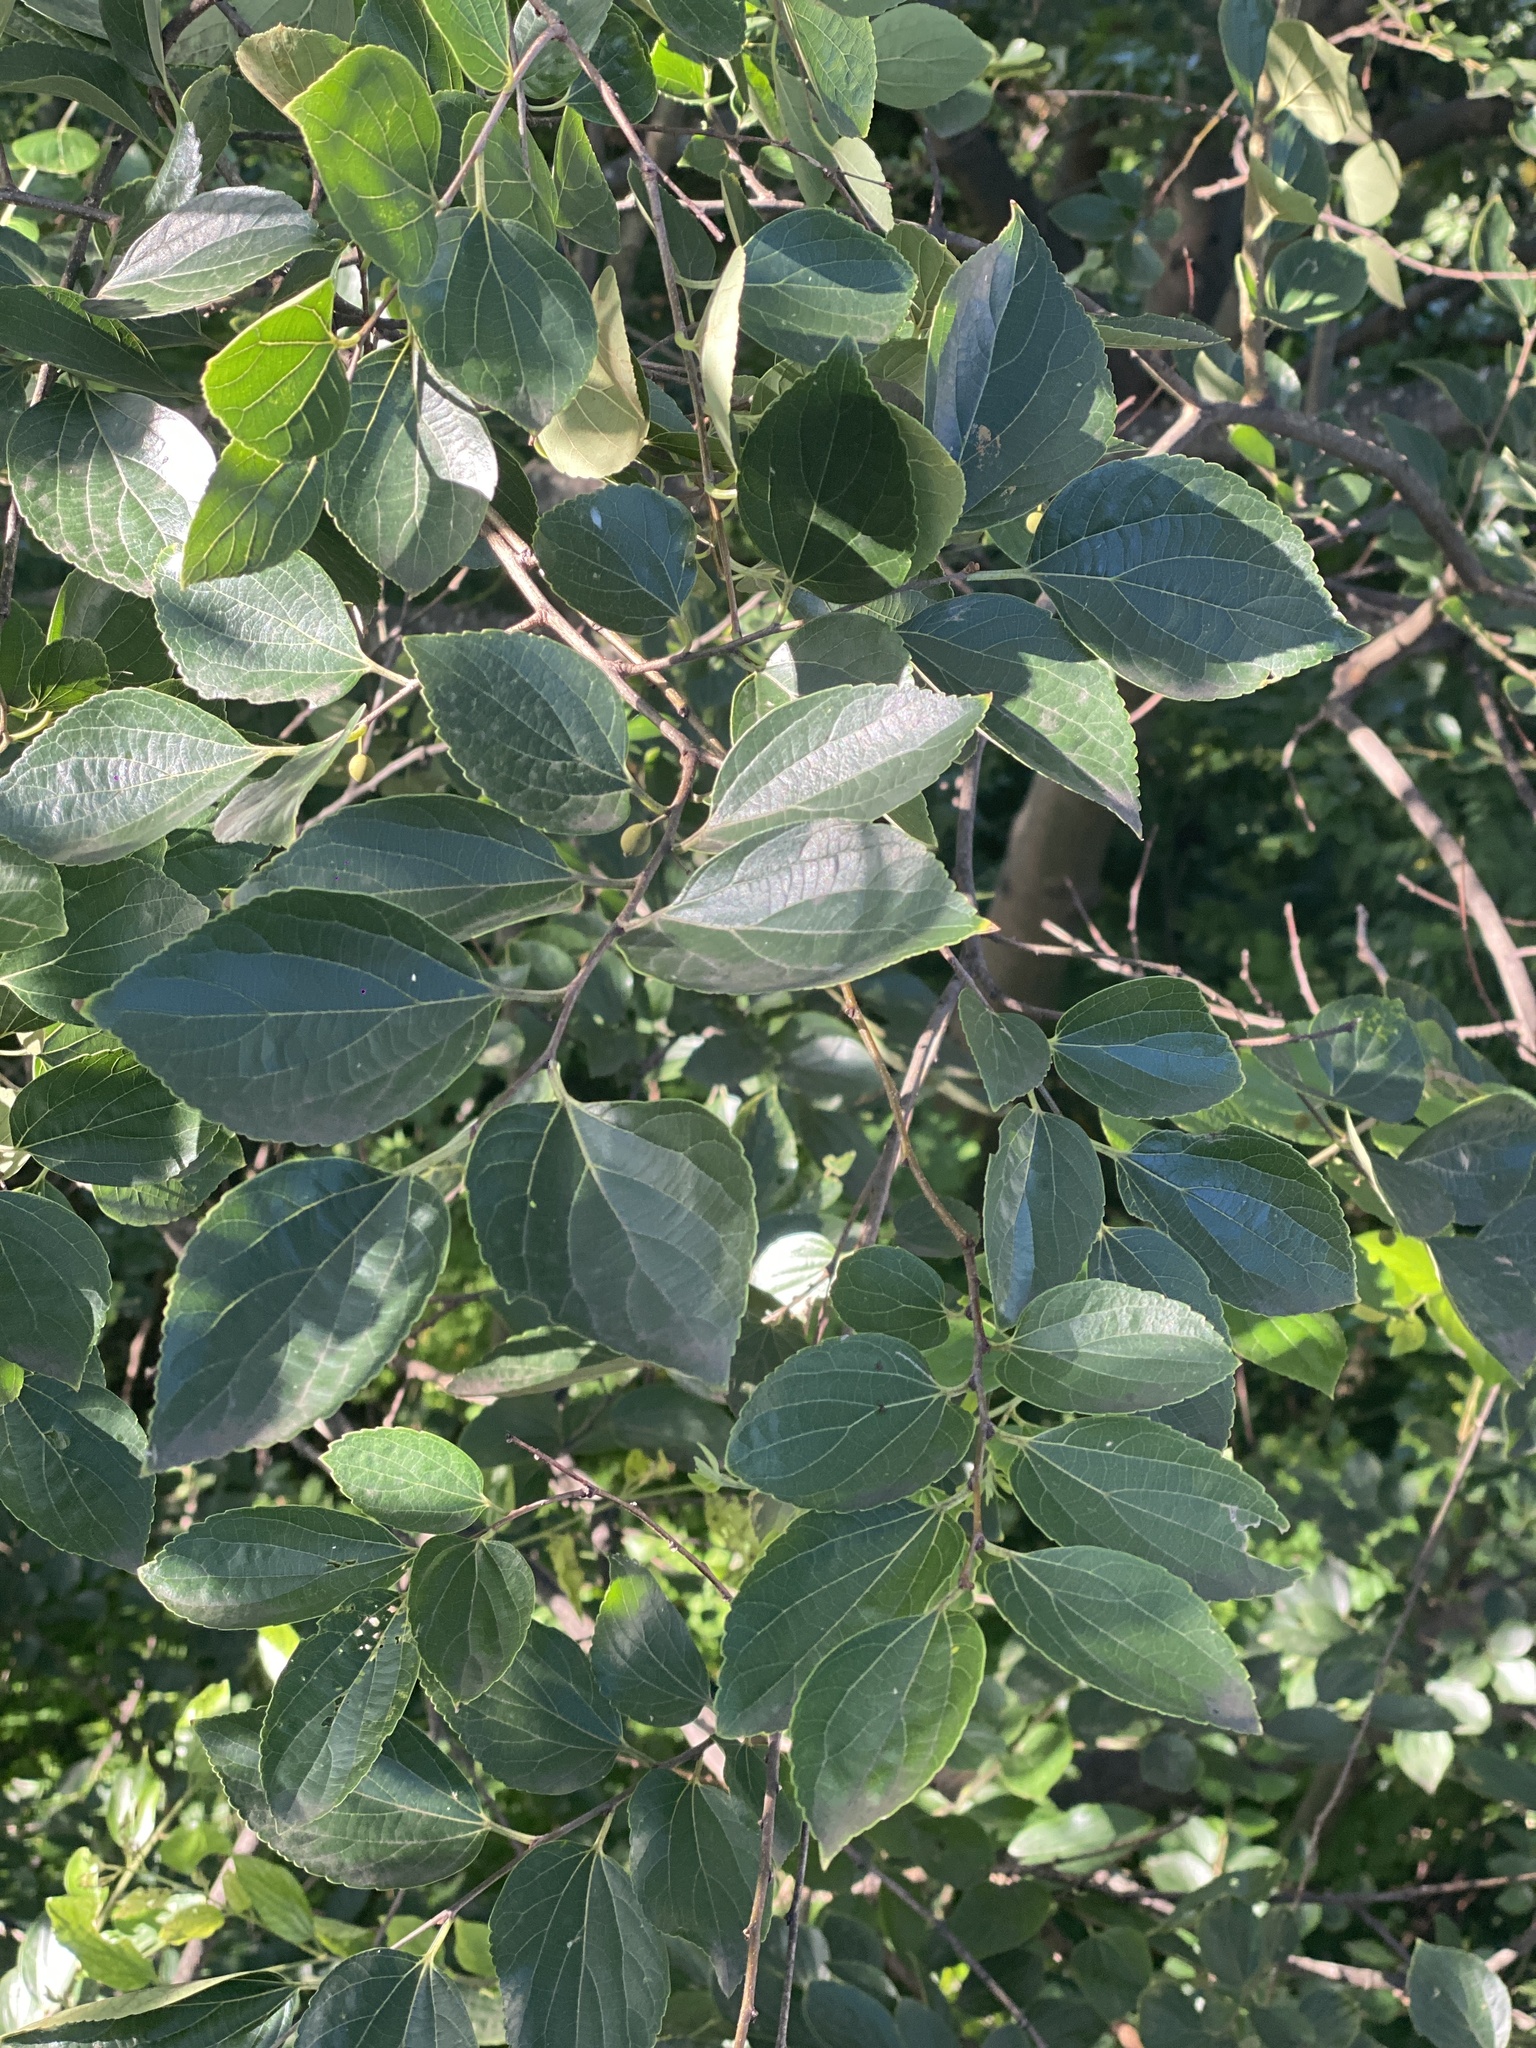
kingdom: Plantae
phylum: Tracheophyta
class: Magnoliopsida
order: Rosales
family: Cannabaceae
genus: Celtis
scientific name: Celtis sinensis
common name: Chinese hackberry
